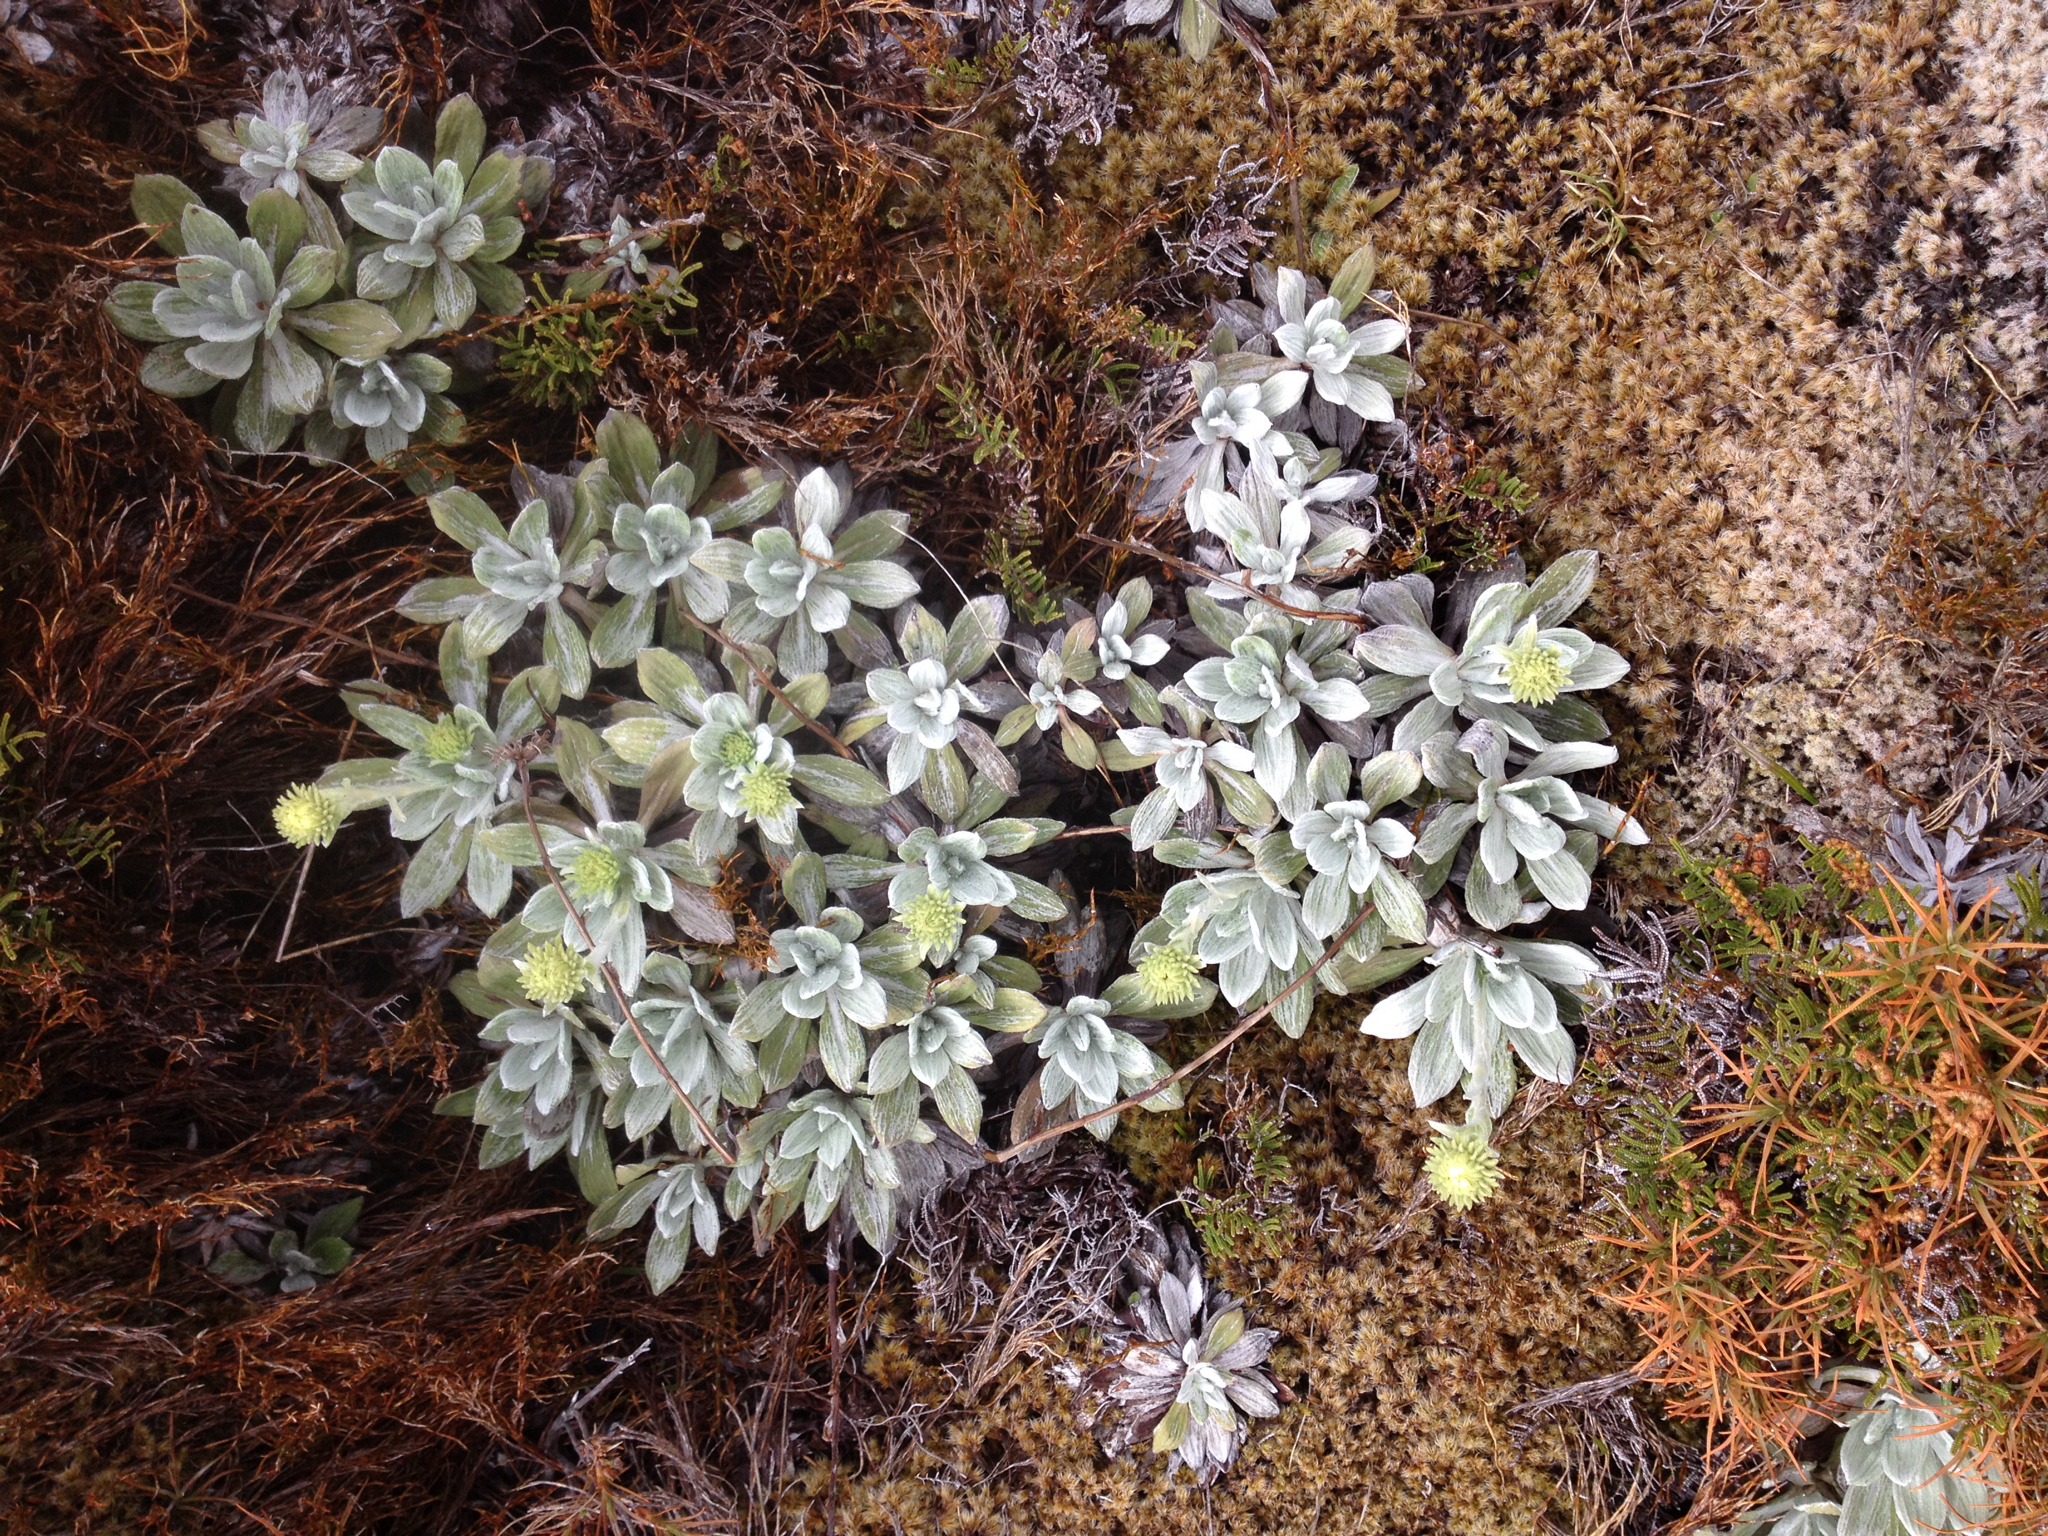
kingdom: Plantae
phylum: Tracheophyta
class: Magnoliopsida
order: Asterales
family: Asteraceae
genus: Celmisia
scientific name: Celmisia incana
